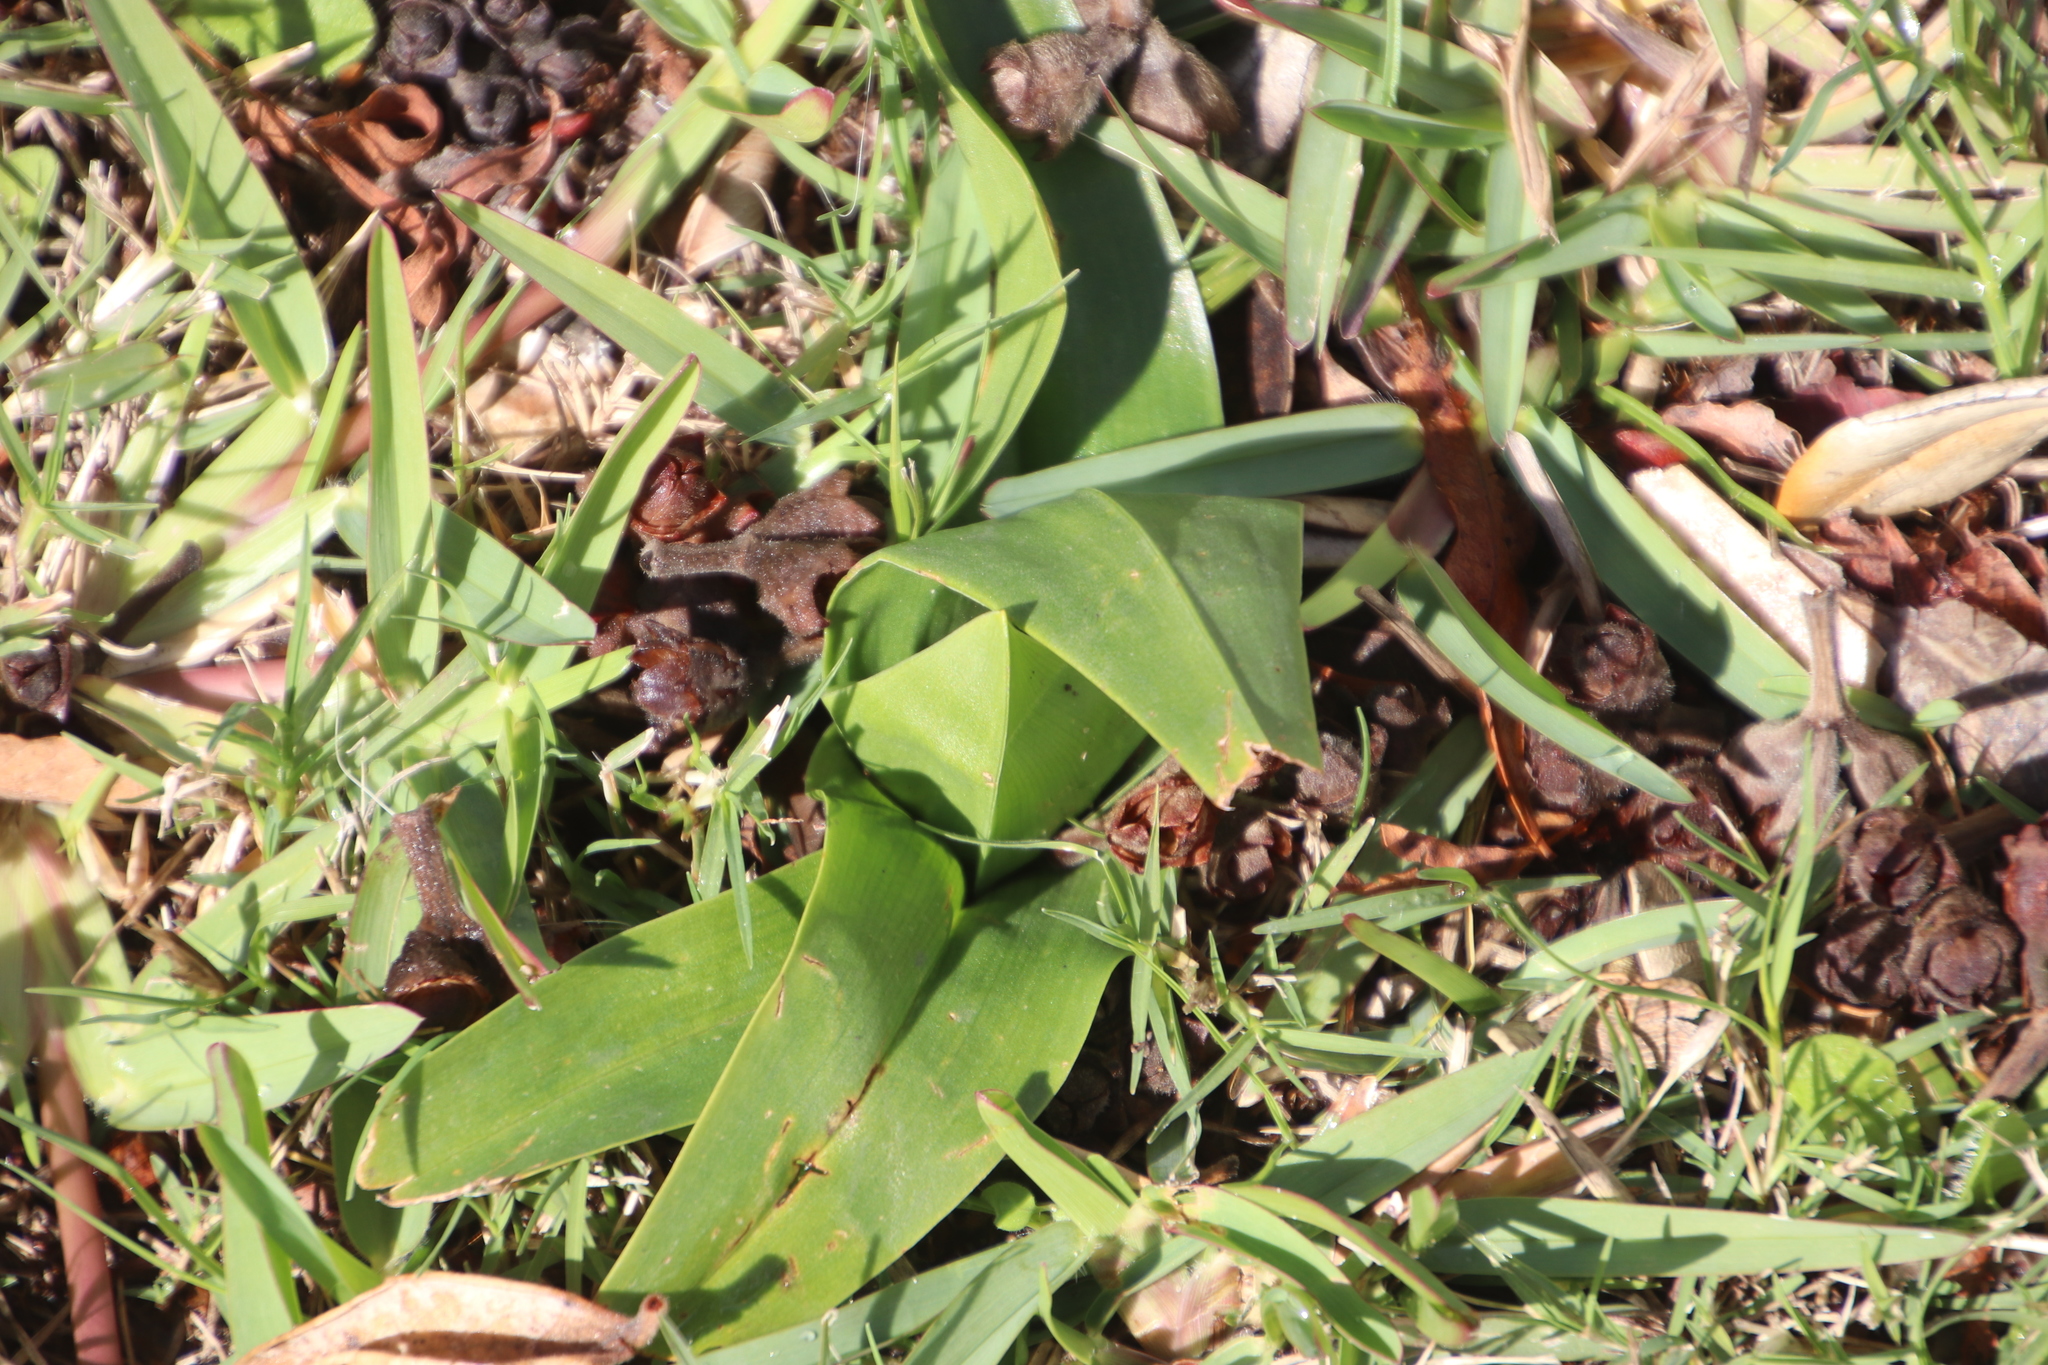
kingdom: Plantae
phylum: Tracheophyta
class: Liliopsida
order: Liliales
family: Colchicaceae
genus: Colchicum
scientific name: Colchicum eucomoides
